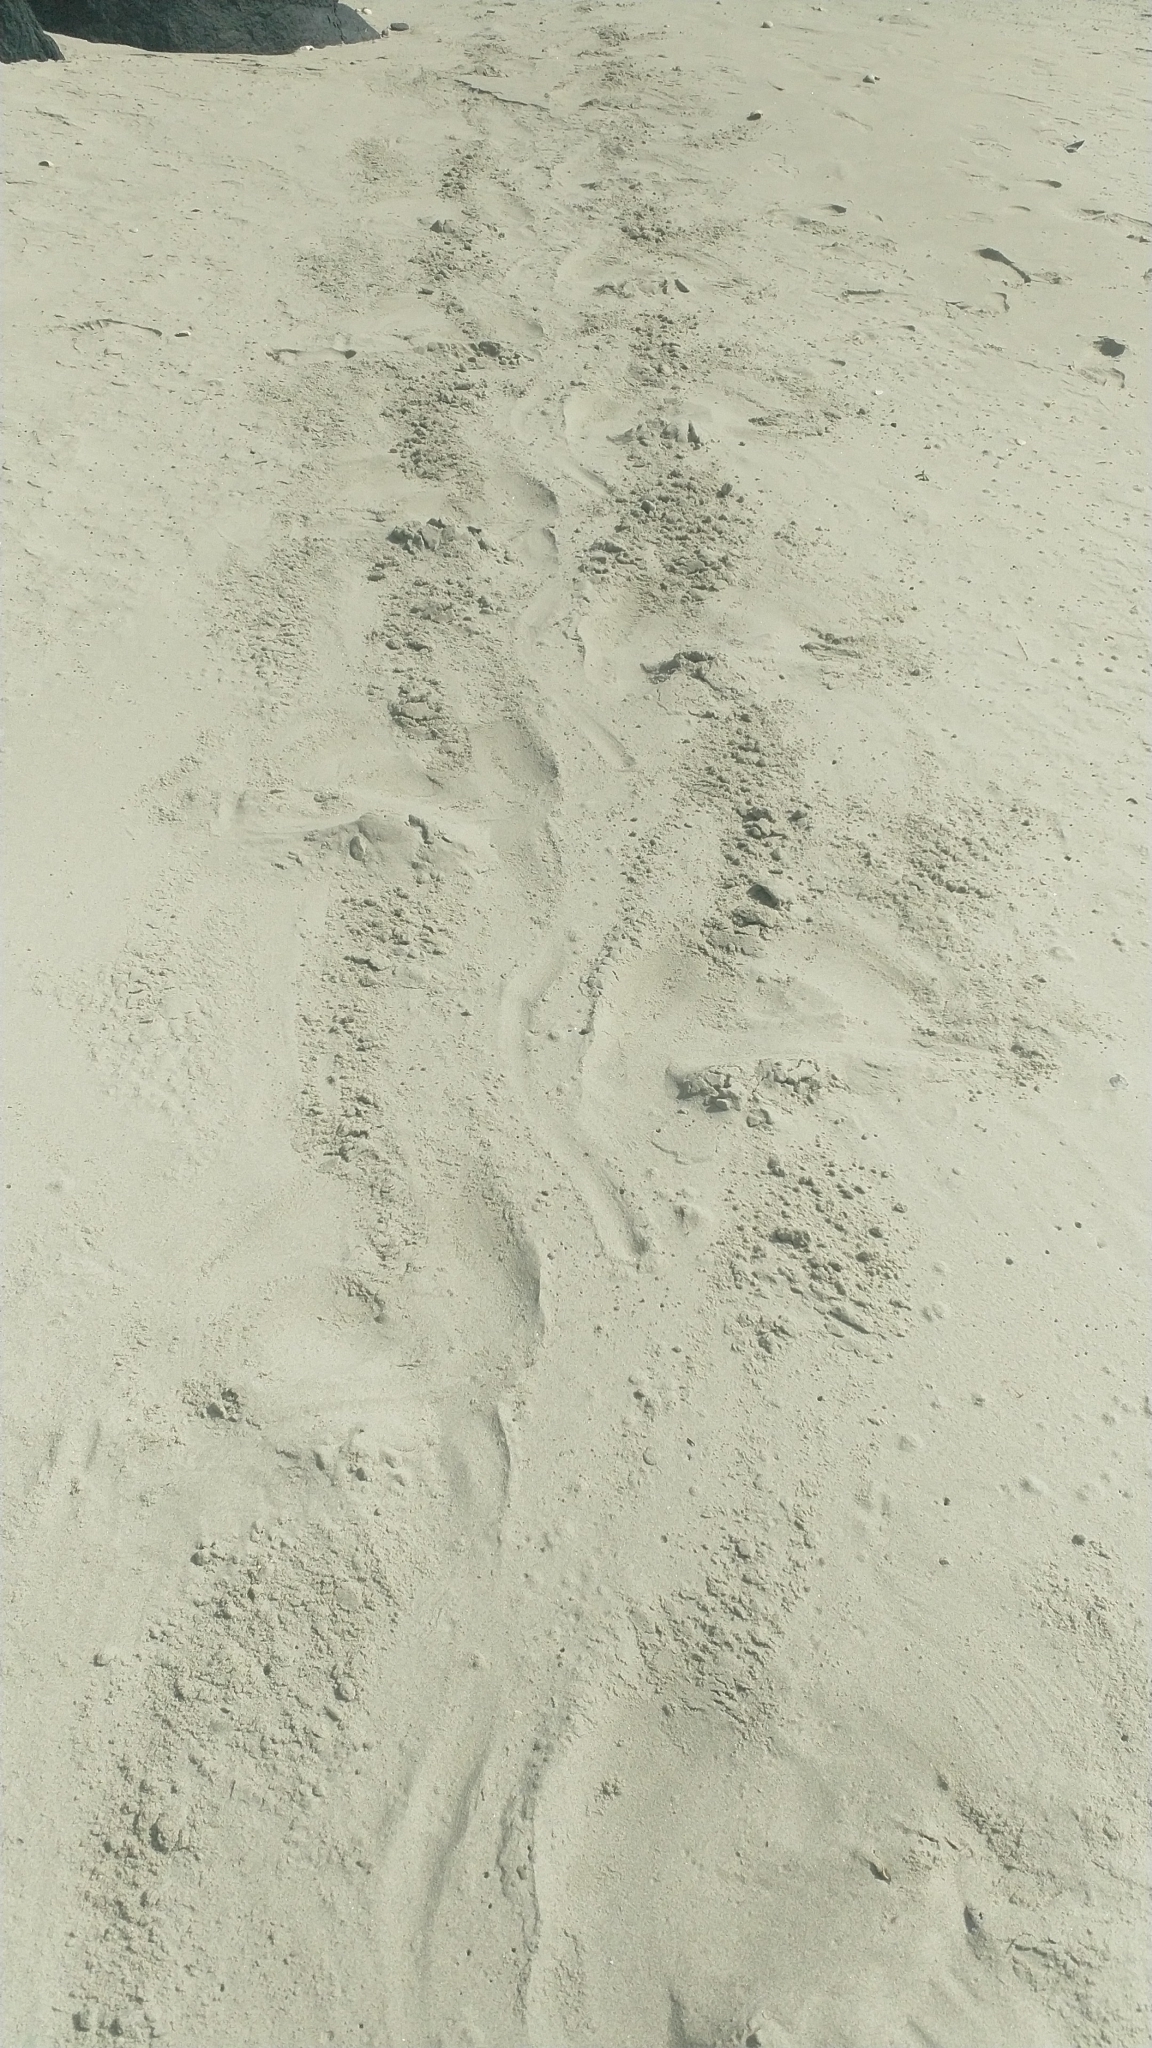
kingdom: Animalia
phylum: Chordata
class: Mammalia
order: Carnivora
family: Otariidae
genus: Phocarctos
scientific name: Phocarctos hookeri
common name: New zealand sea lion
